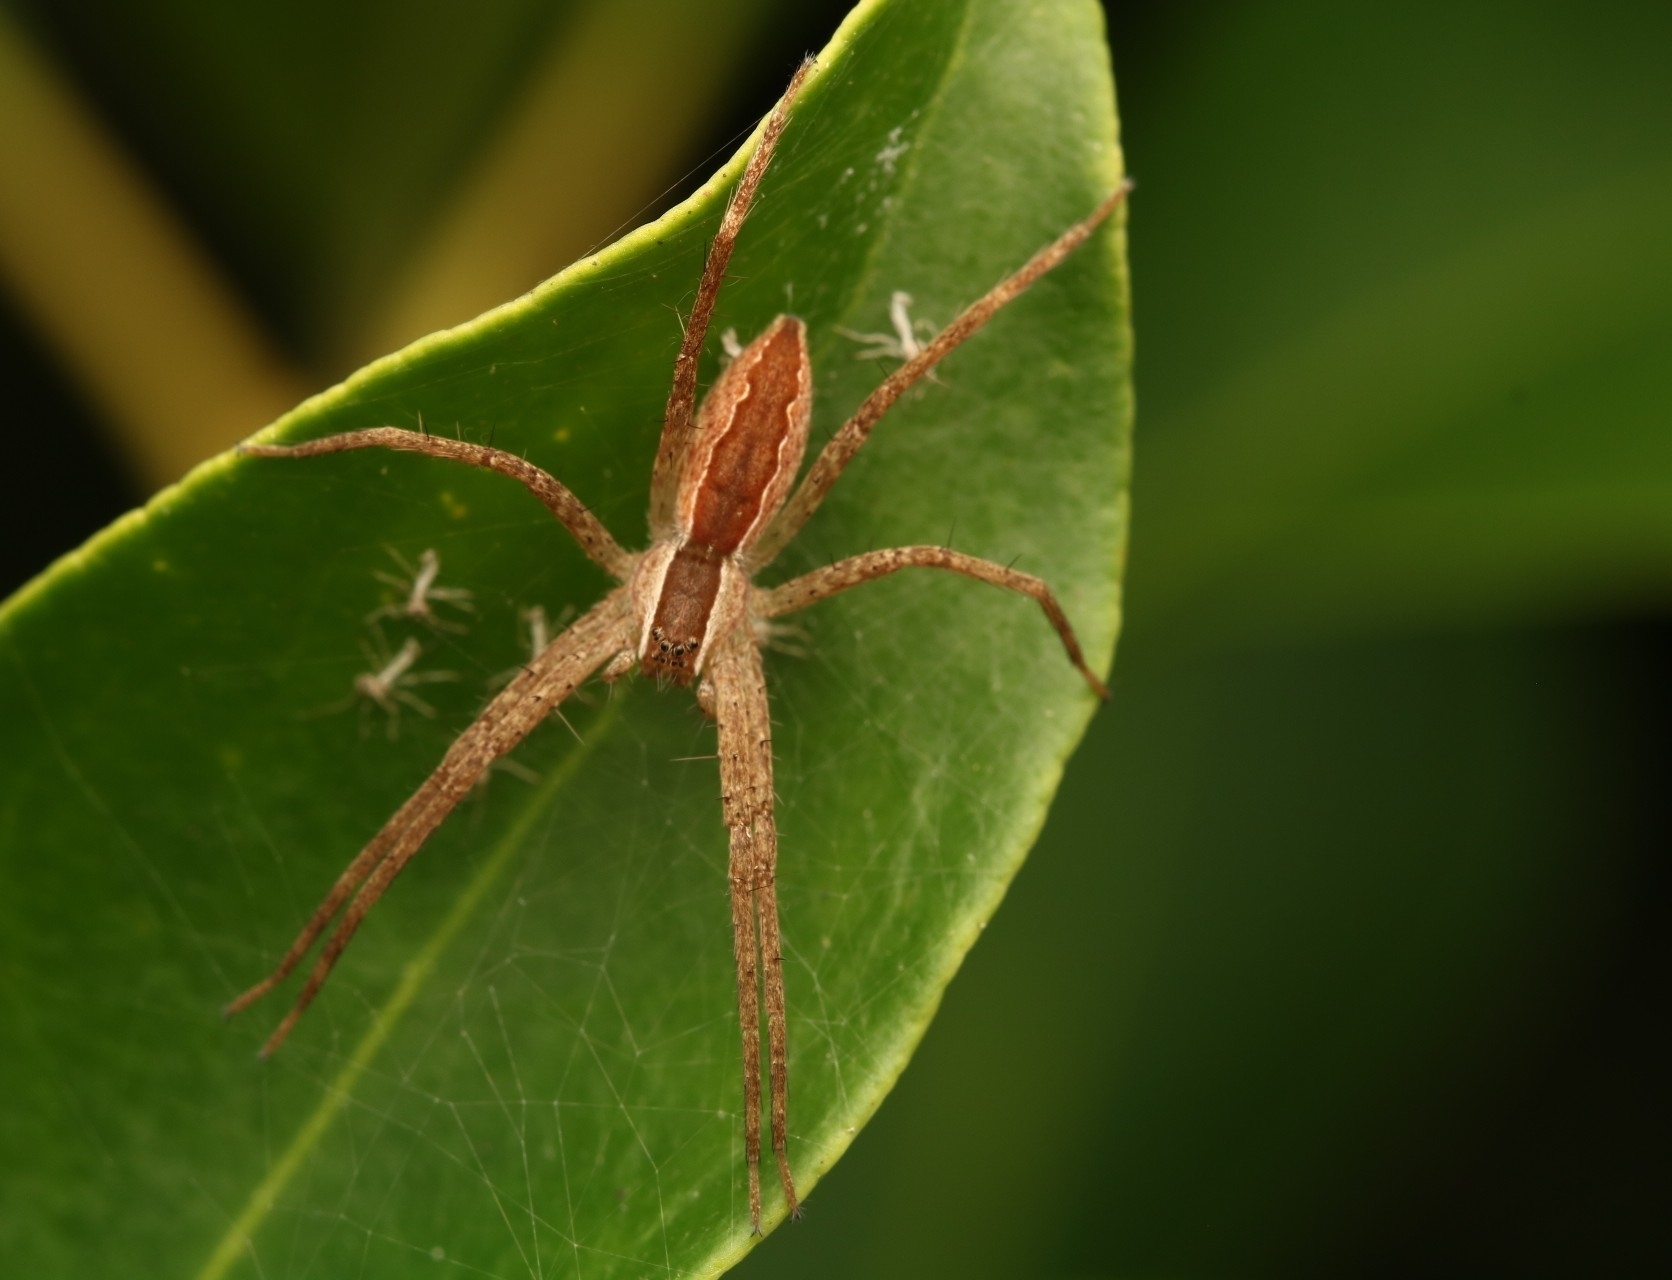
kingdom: Animalia
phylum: Arthropoda
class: Arachnida
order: Araneae
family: Pisauridae
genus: Pisaurina
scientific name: Pisaurina mira
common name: American nursery web spider
